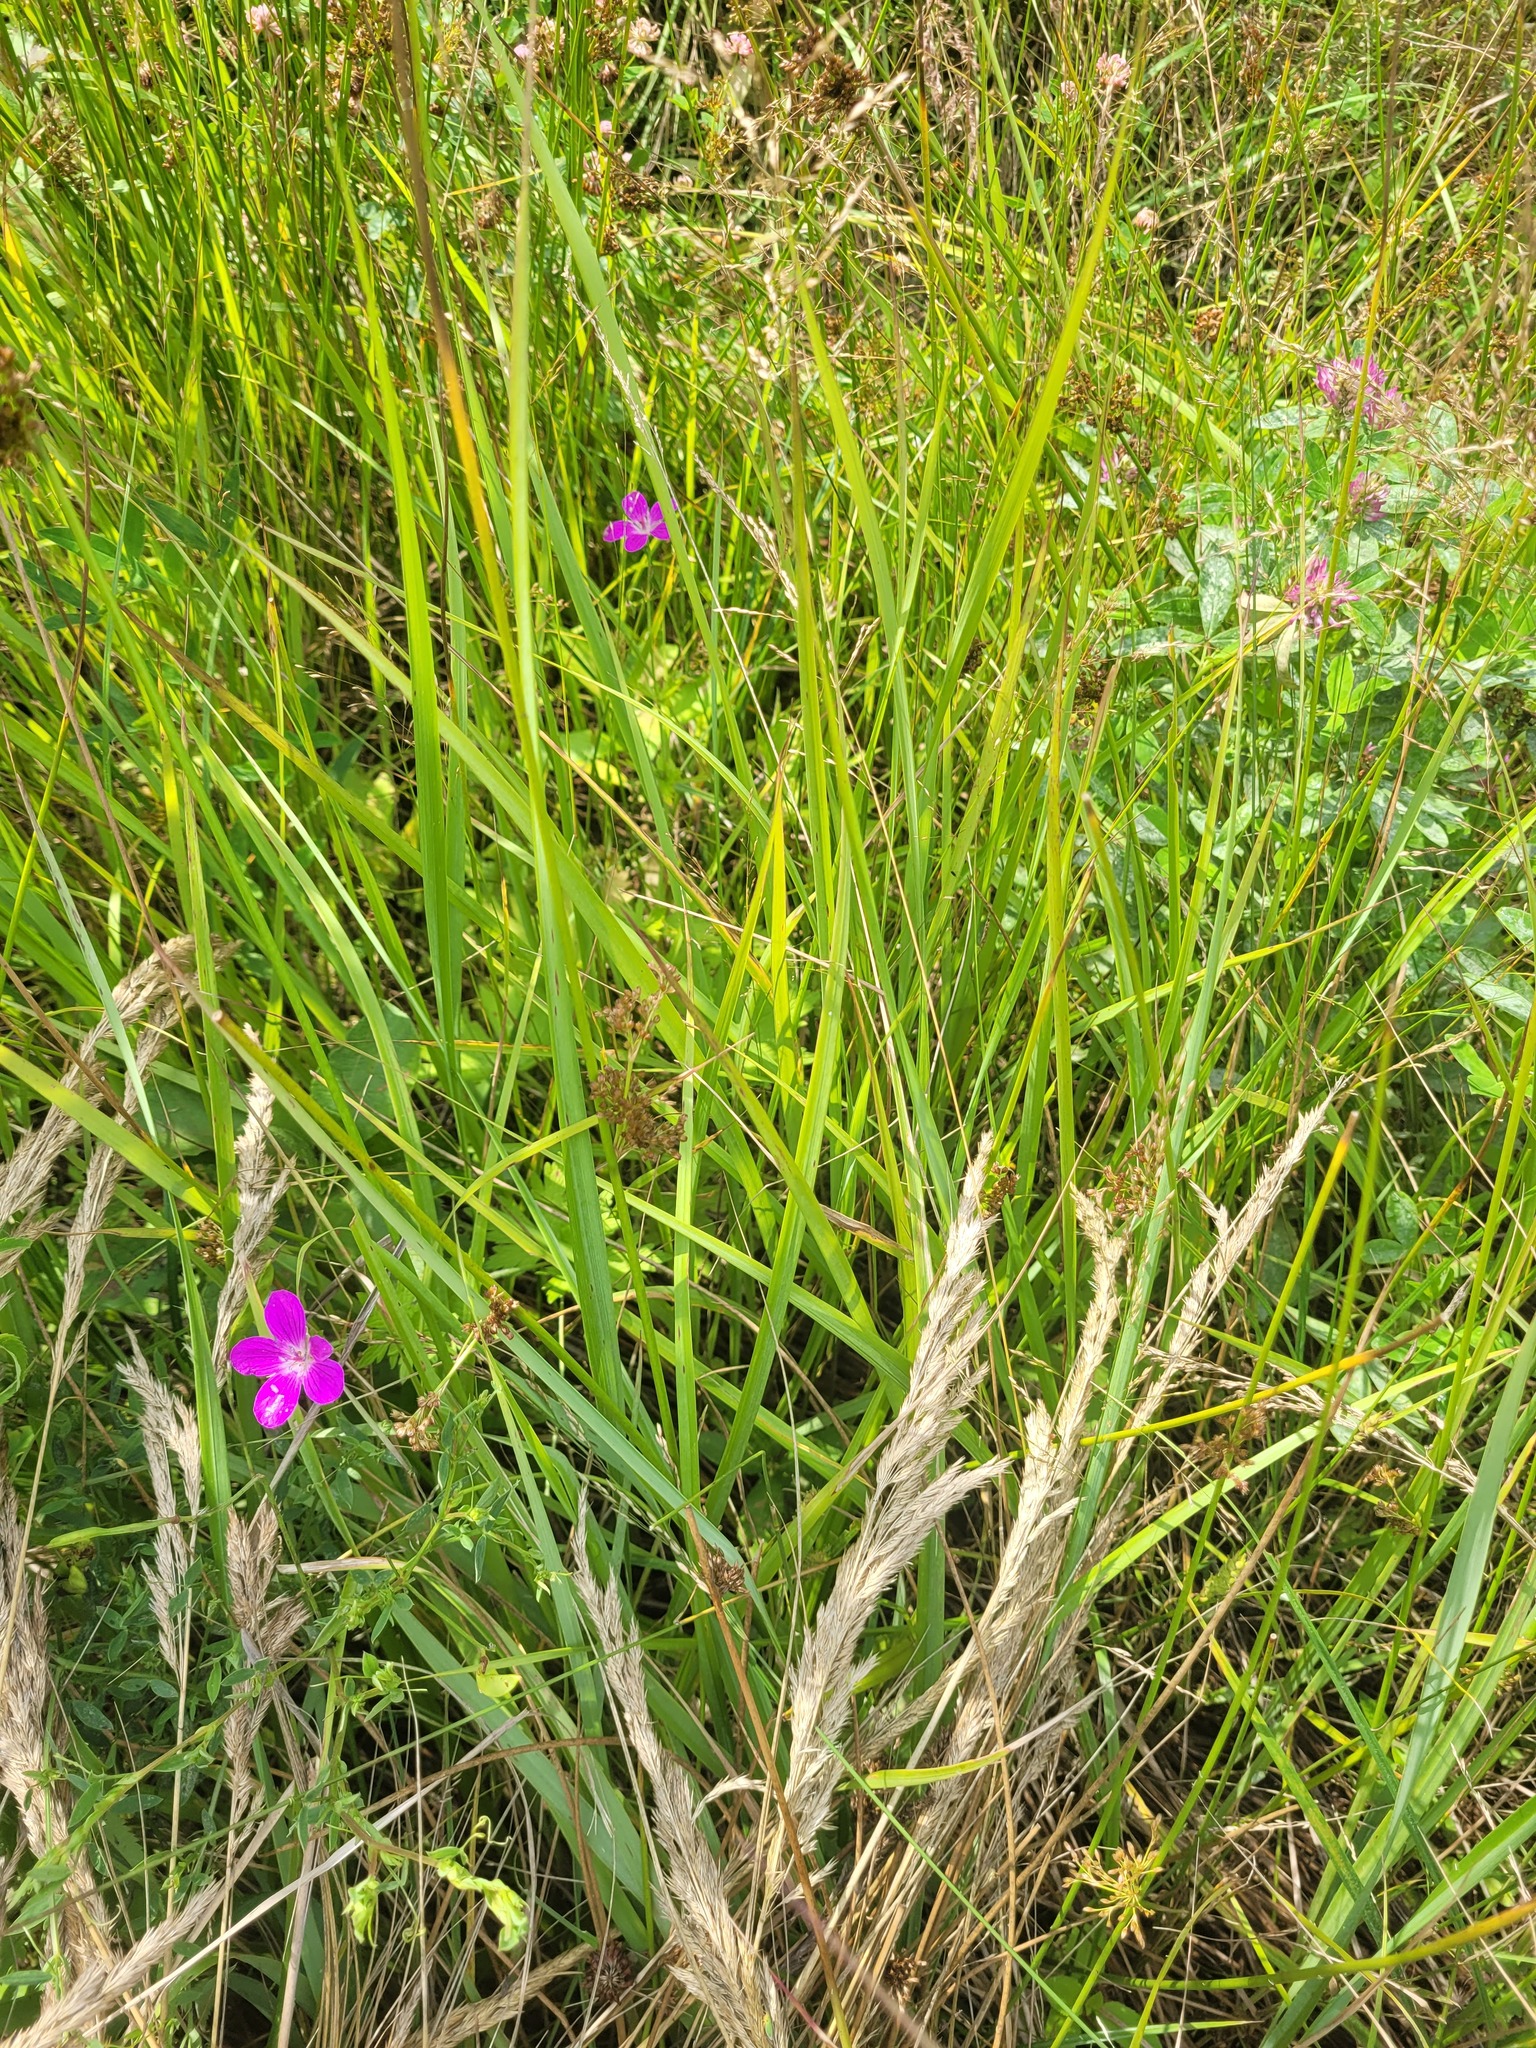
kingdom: Plantae
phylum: Tracheophyta
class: Liliopsida
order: Poales
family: Juncaceae
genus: Juncus
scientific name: Juncus effusus
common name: Soft rush
